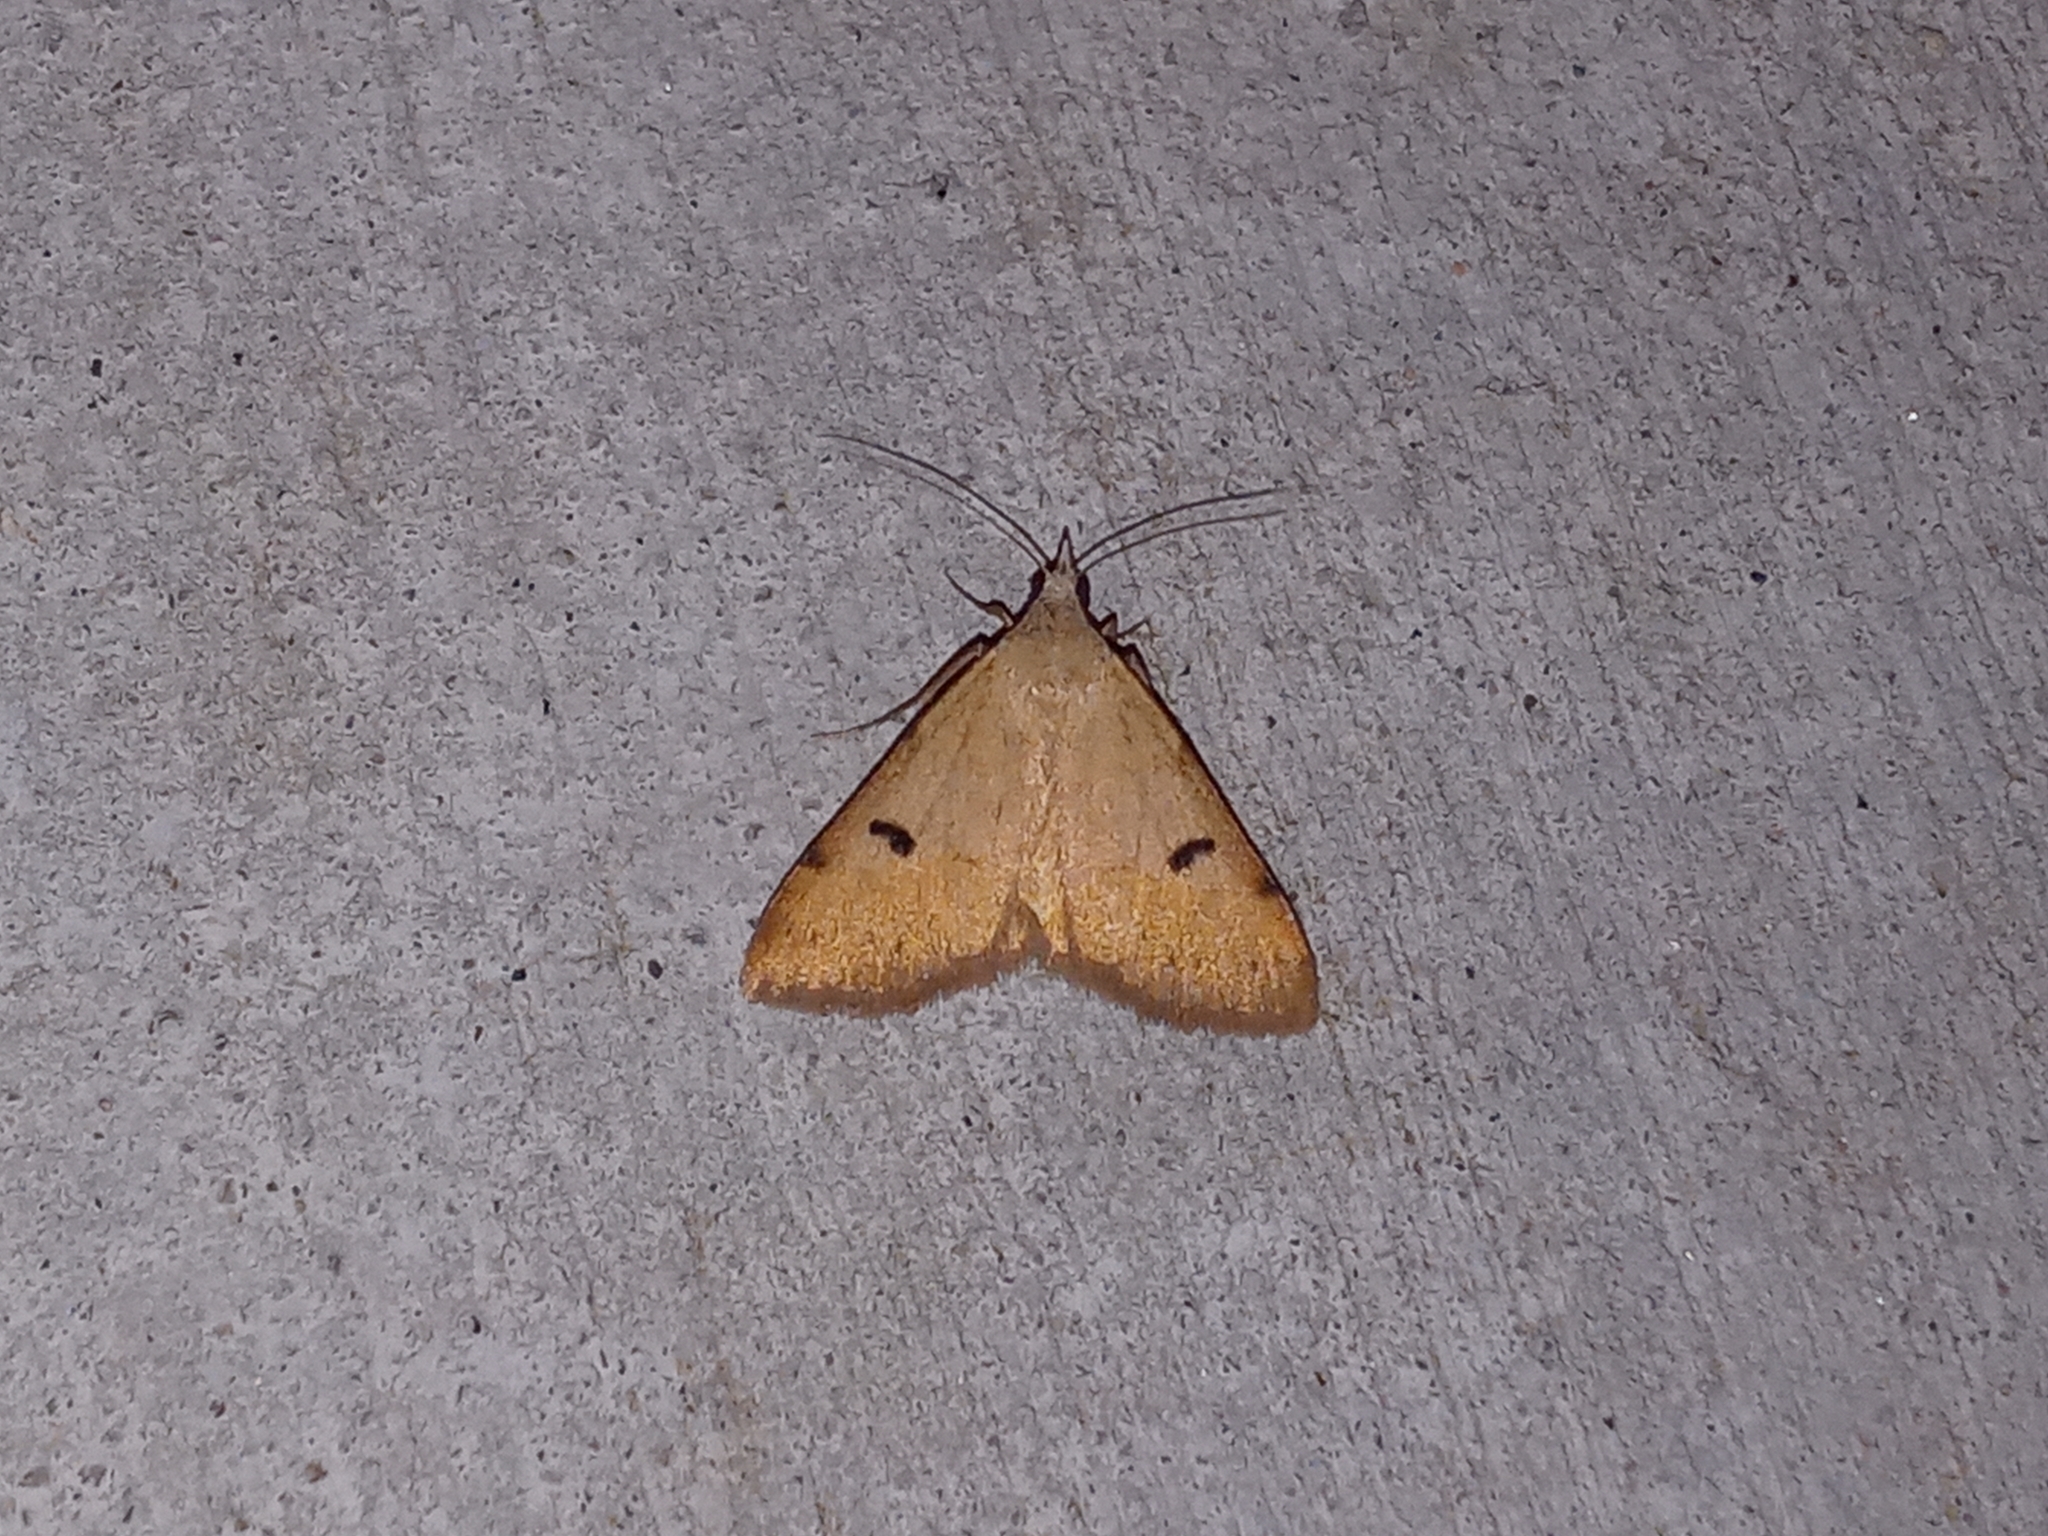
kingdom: Animalia
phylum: Arthropoda
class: Insecta
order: Lepidoptera
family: Erebidae
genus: Hemeroplanis
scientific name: Hemeroplanis historialis
